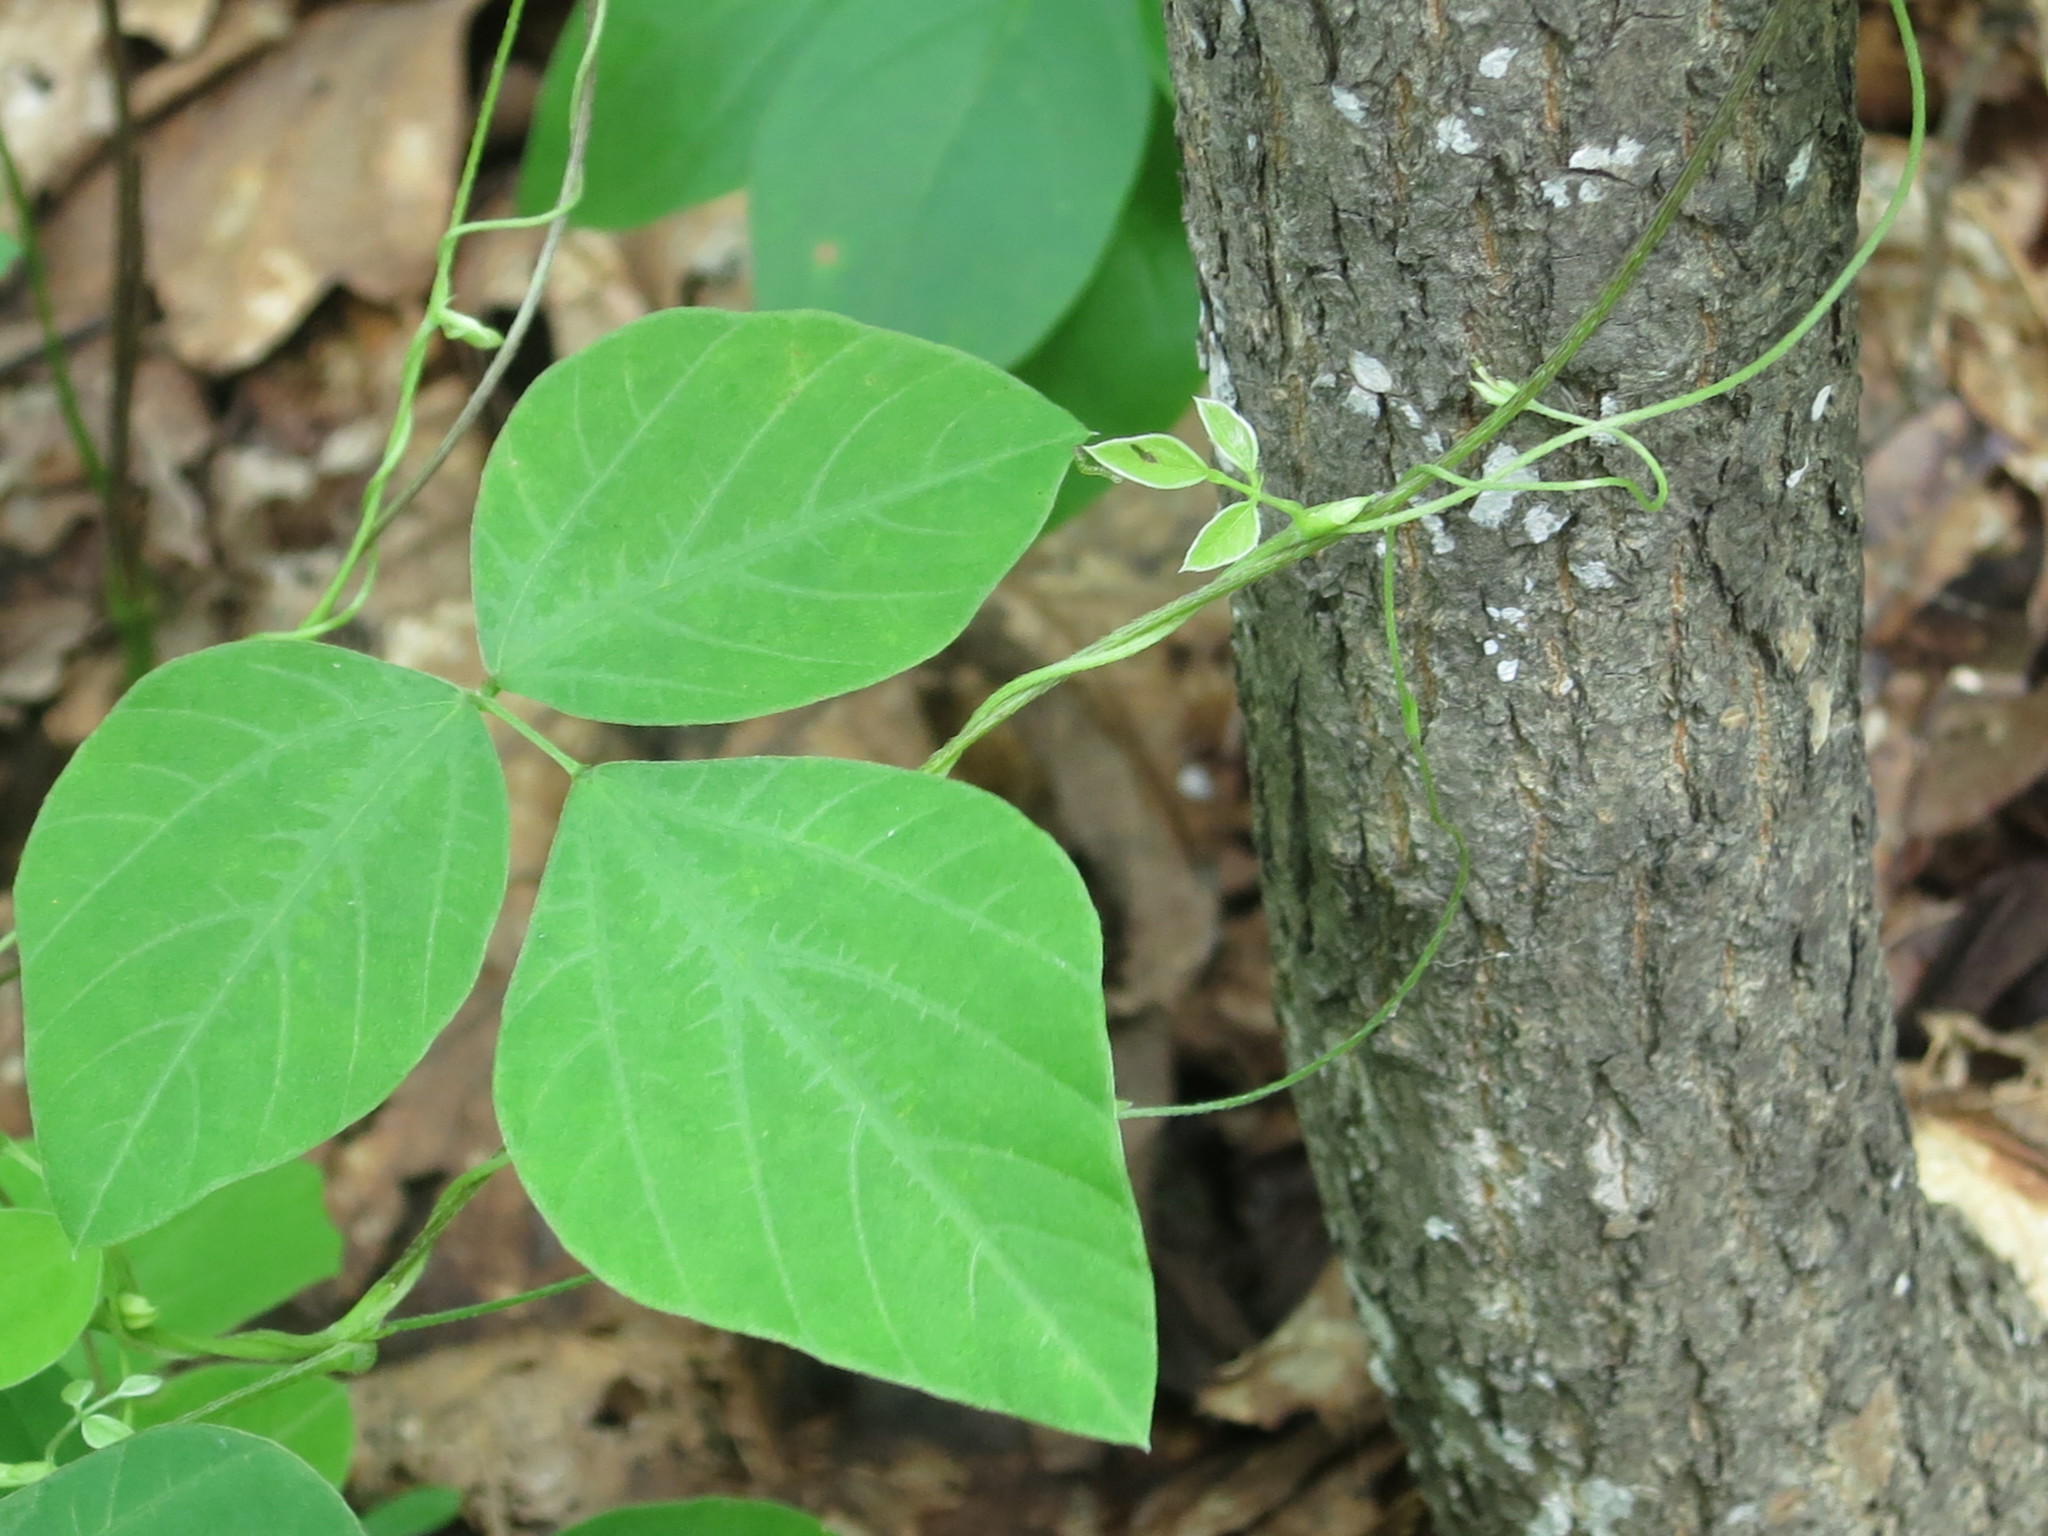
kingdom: Plantae
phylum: Tracheophyta
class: Magnoliopsida
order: Fabales
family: Fabaceae
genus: Amphicarpaea
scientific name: Amphicarpaea edgeworthii
